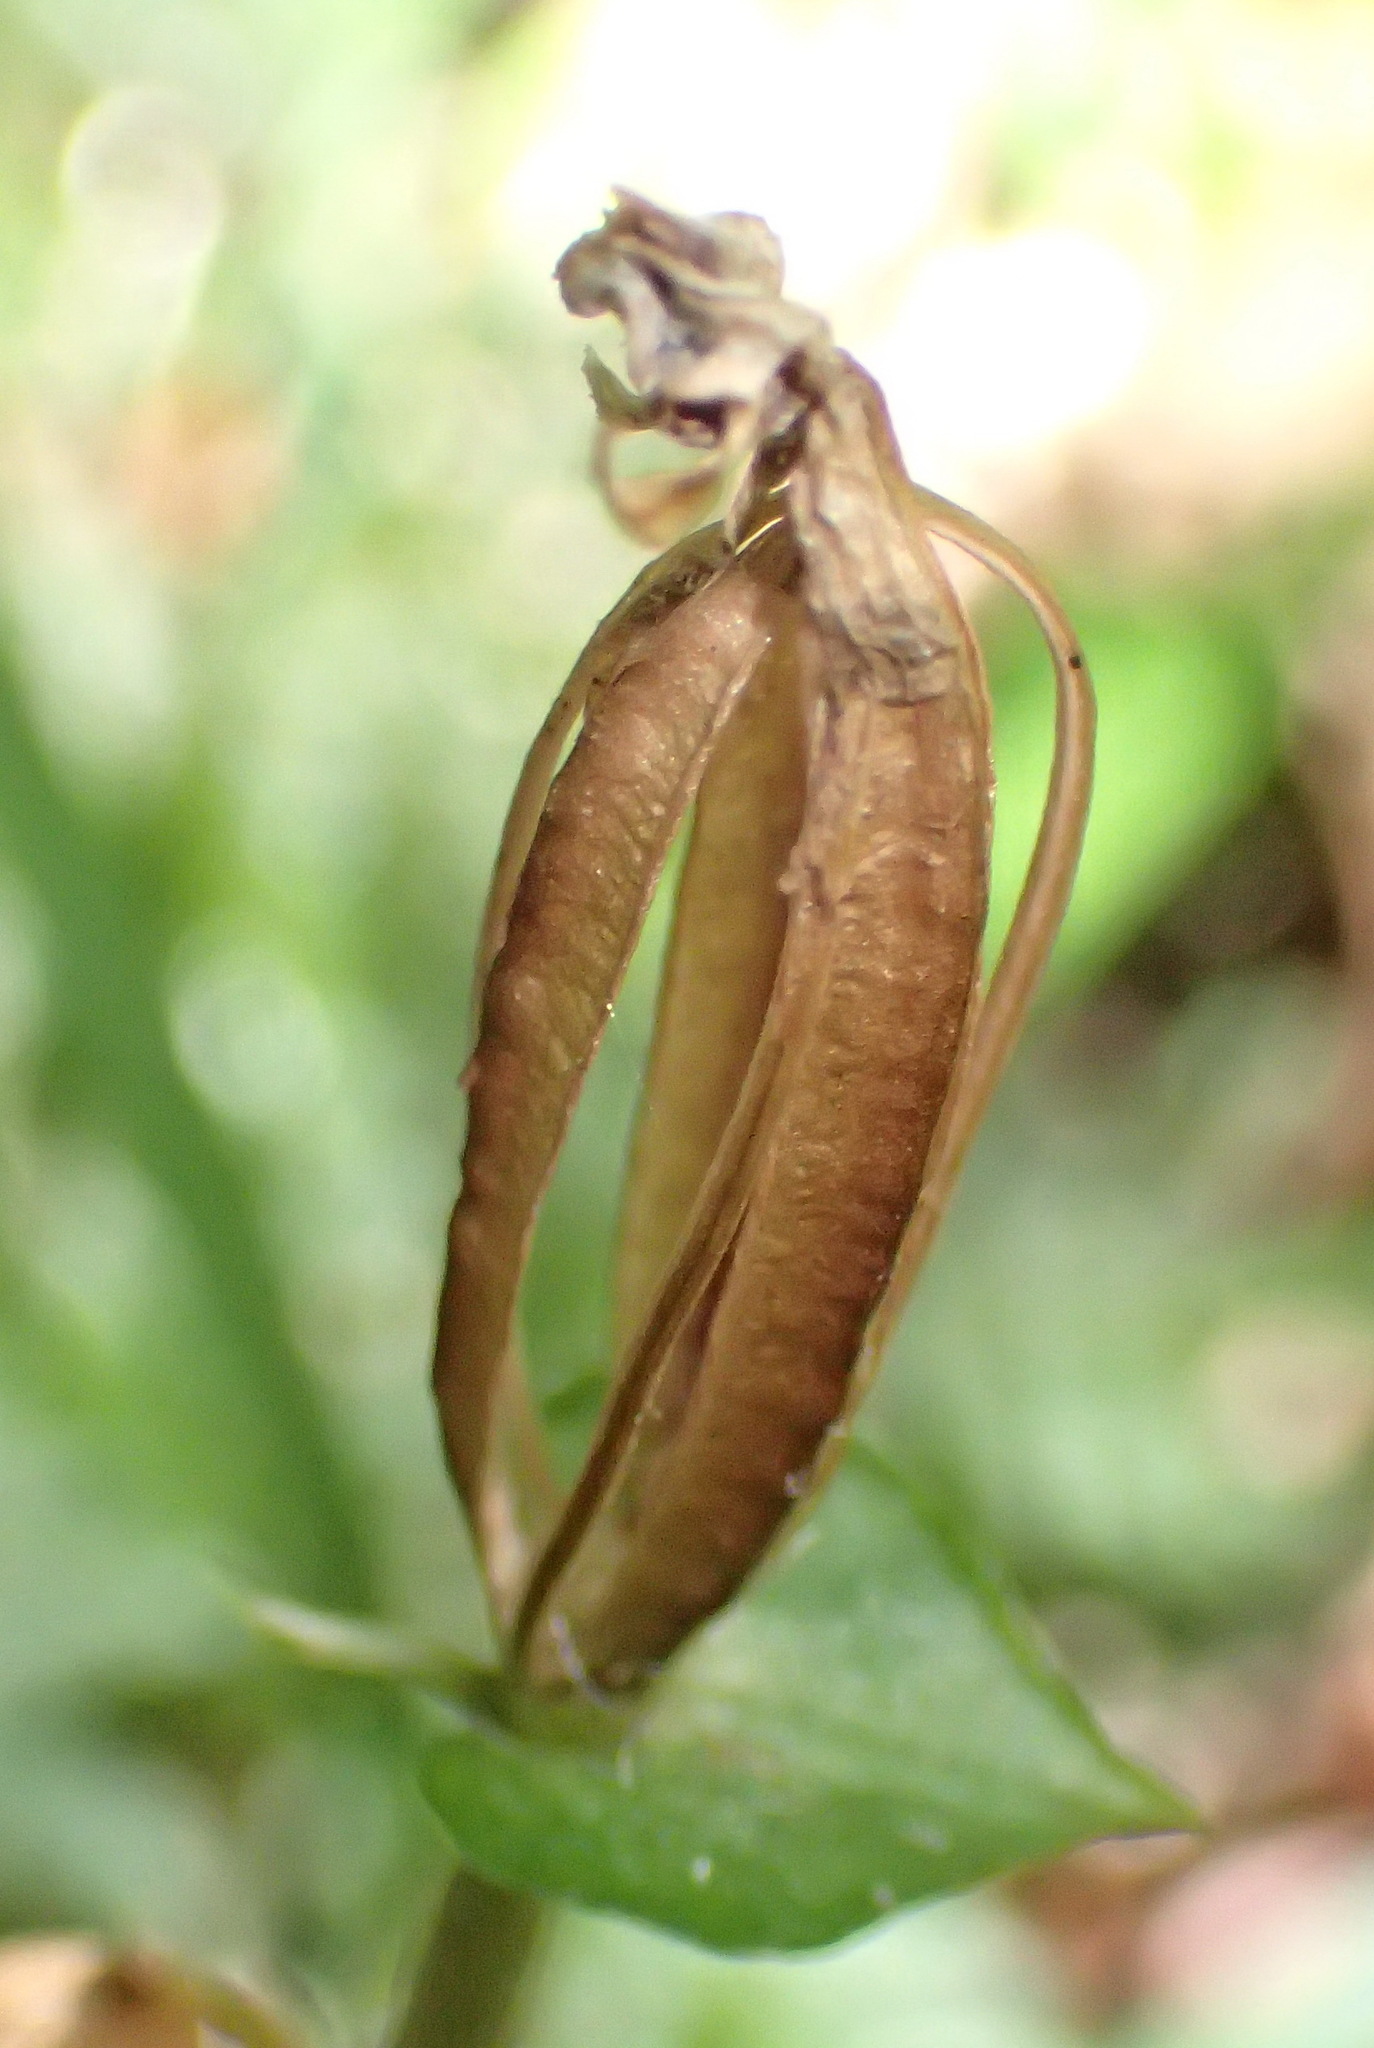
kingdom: Plantae
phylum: Tracheophyta
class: Liliopsida
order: Asparagales
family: Orchidaceae
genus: Disperis
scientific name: Disperis lindleyana
